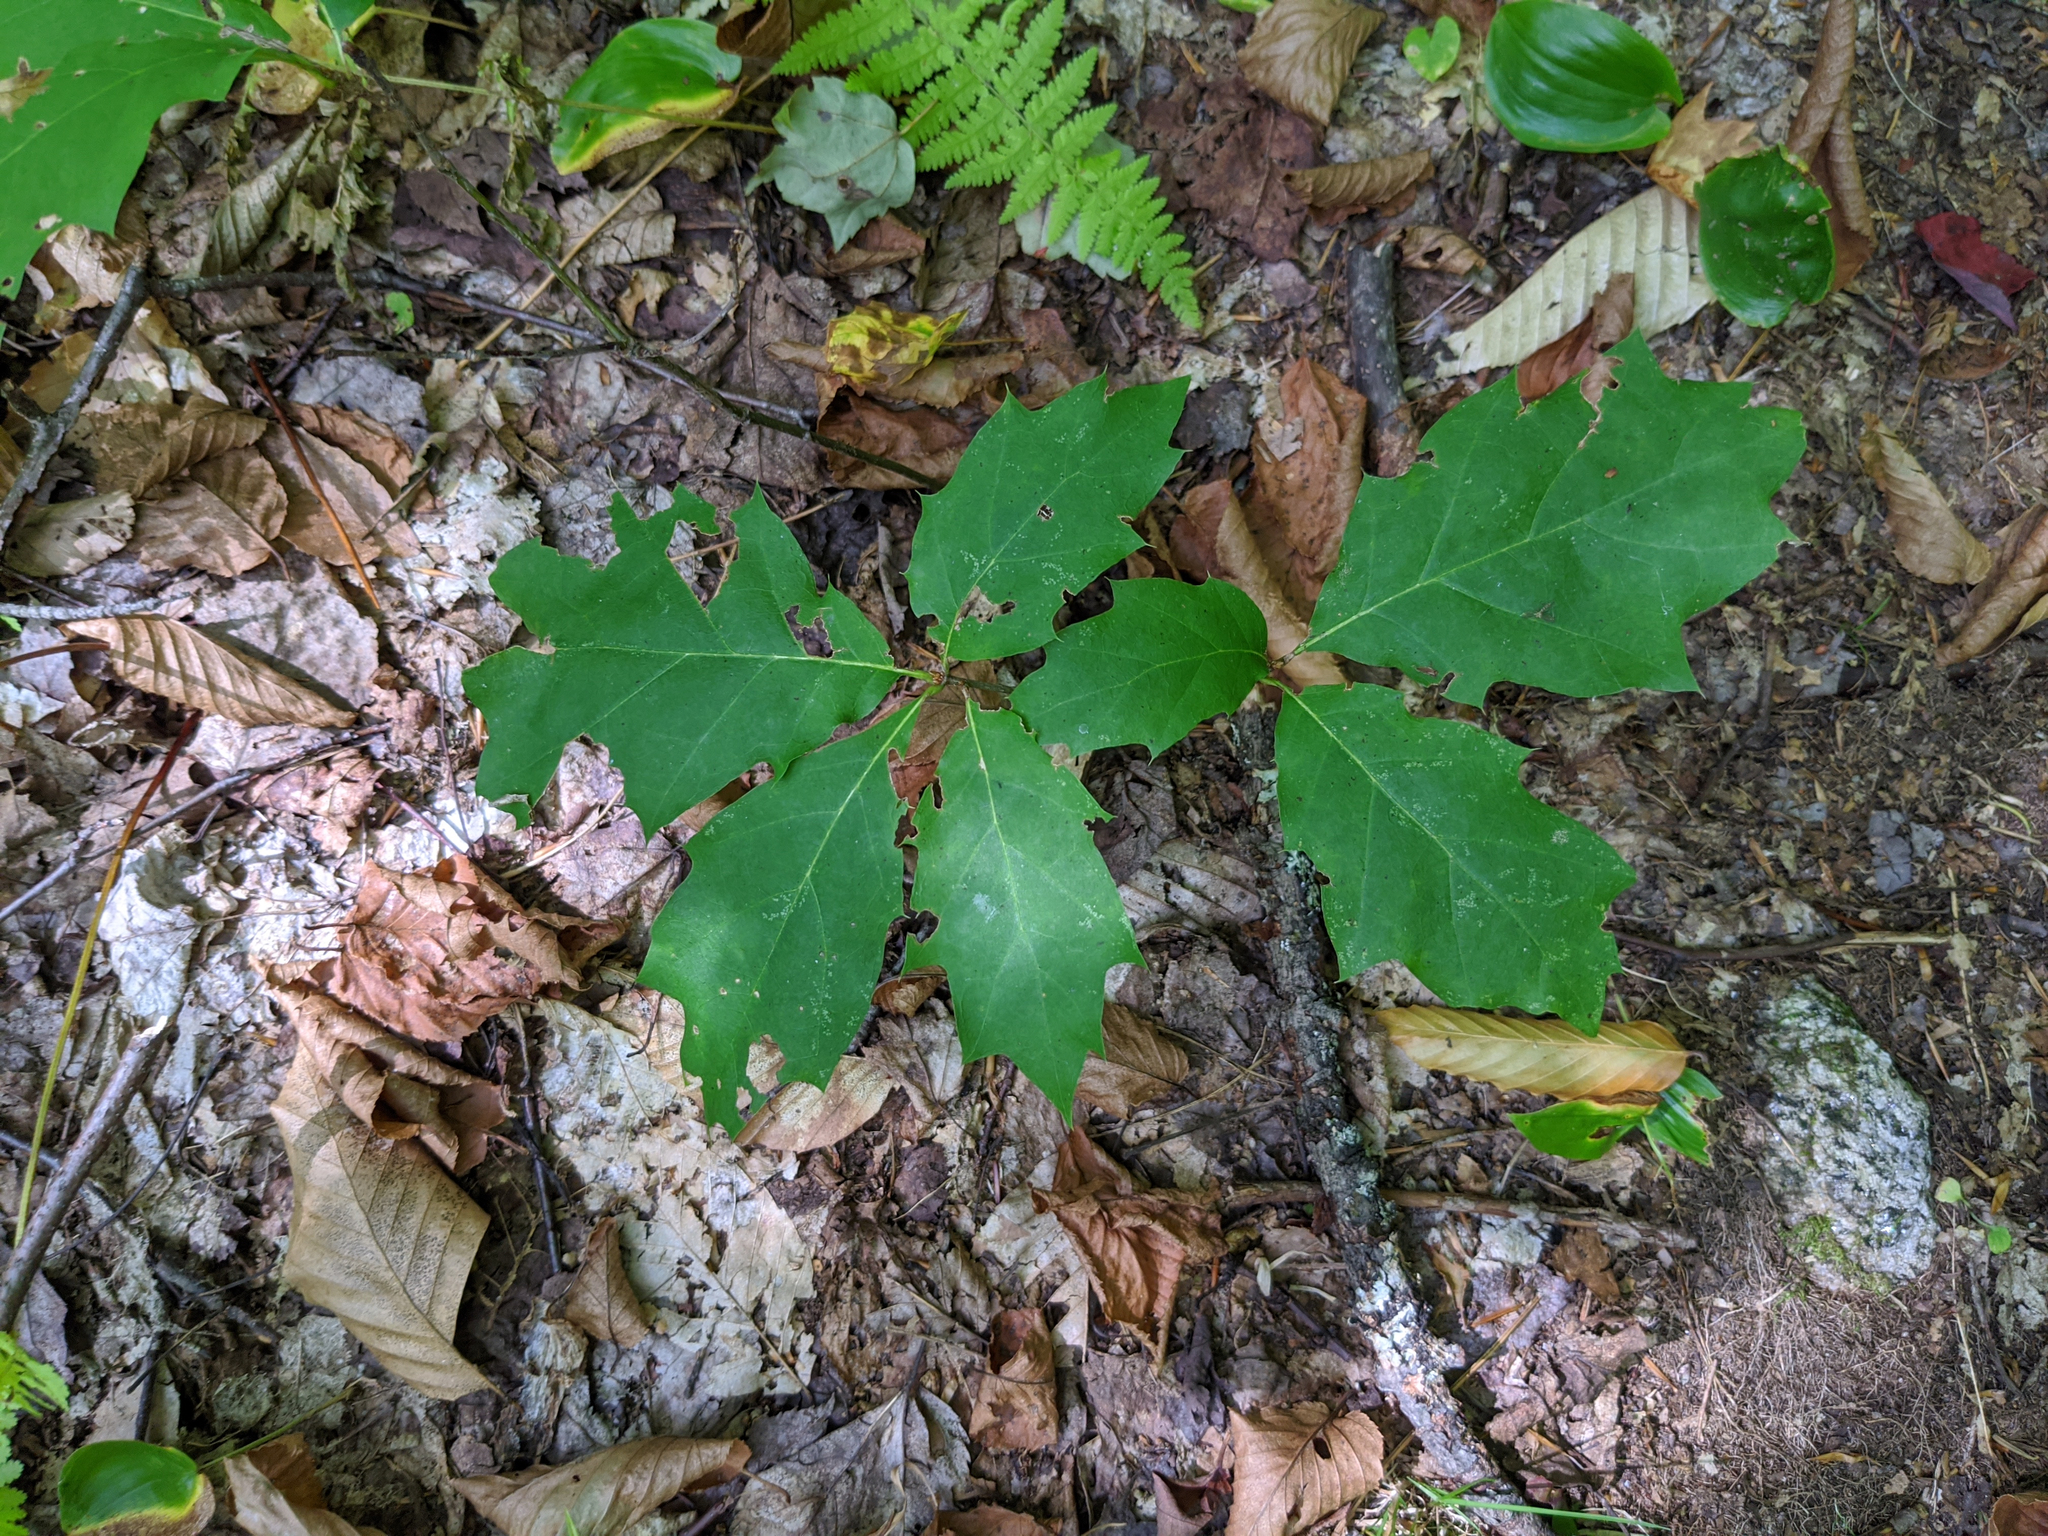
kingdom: Plantae
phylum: Tracheophyta
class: Magnoliopsida
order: Fagales
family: Fagaceae
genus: Quercus
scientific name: Quercus rubra
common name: Red oak
